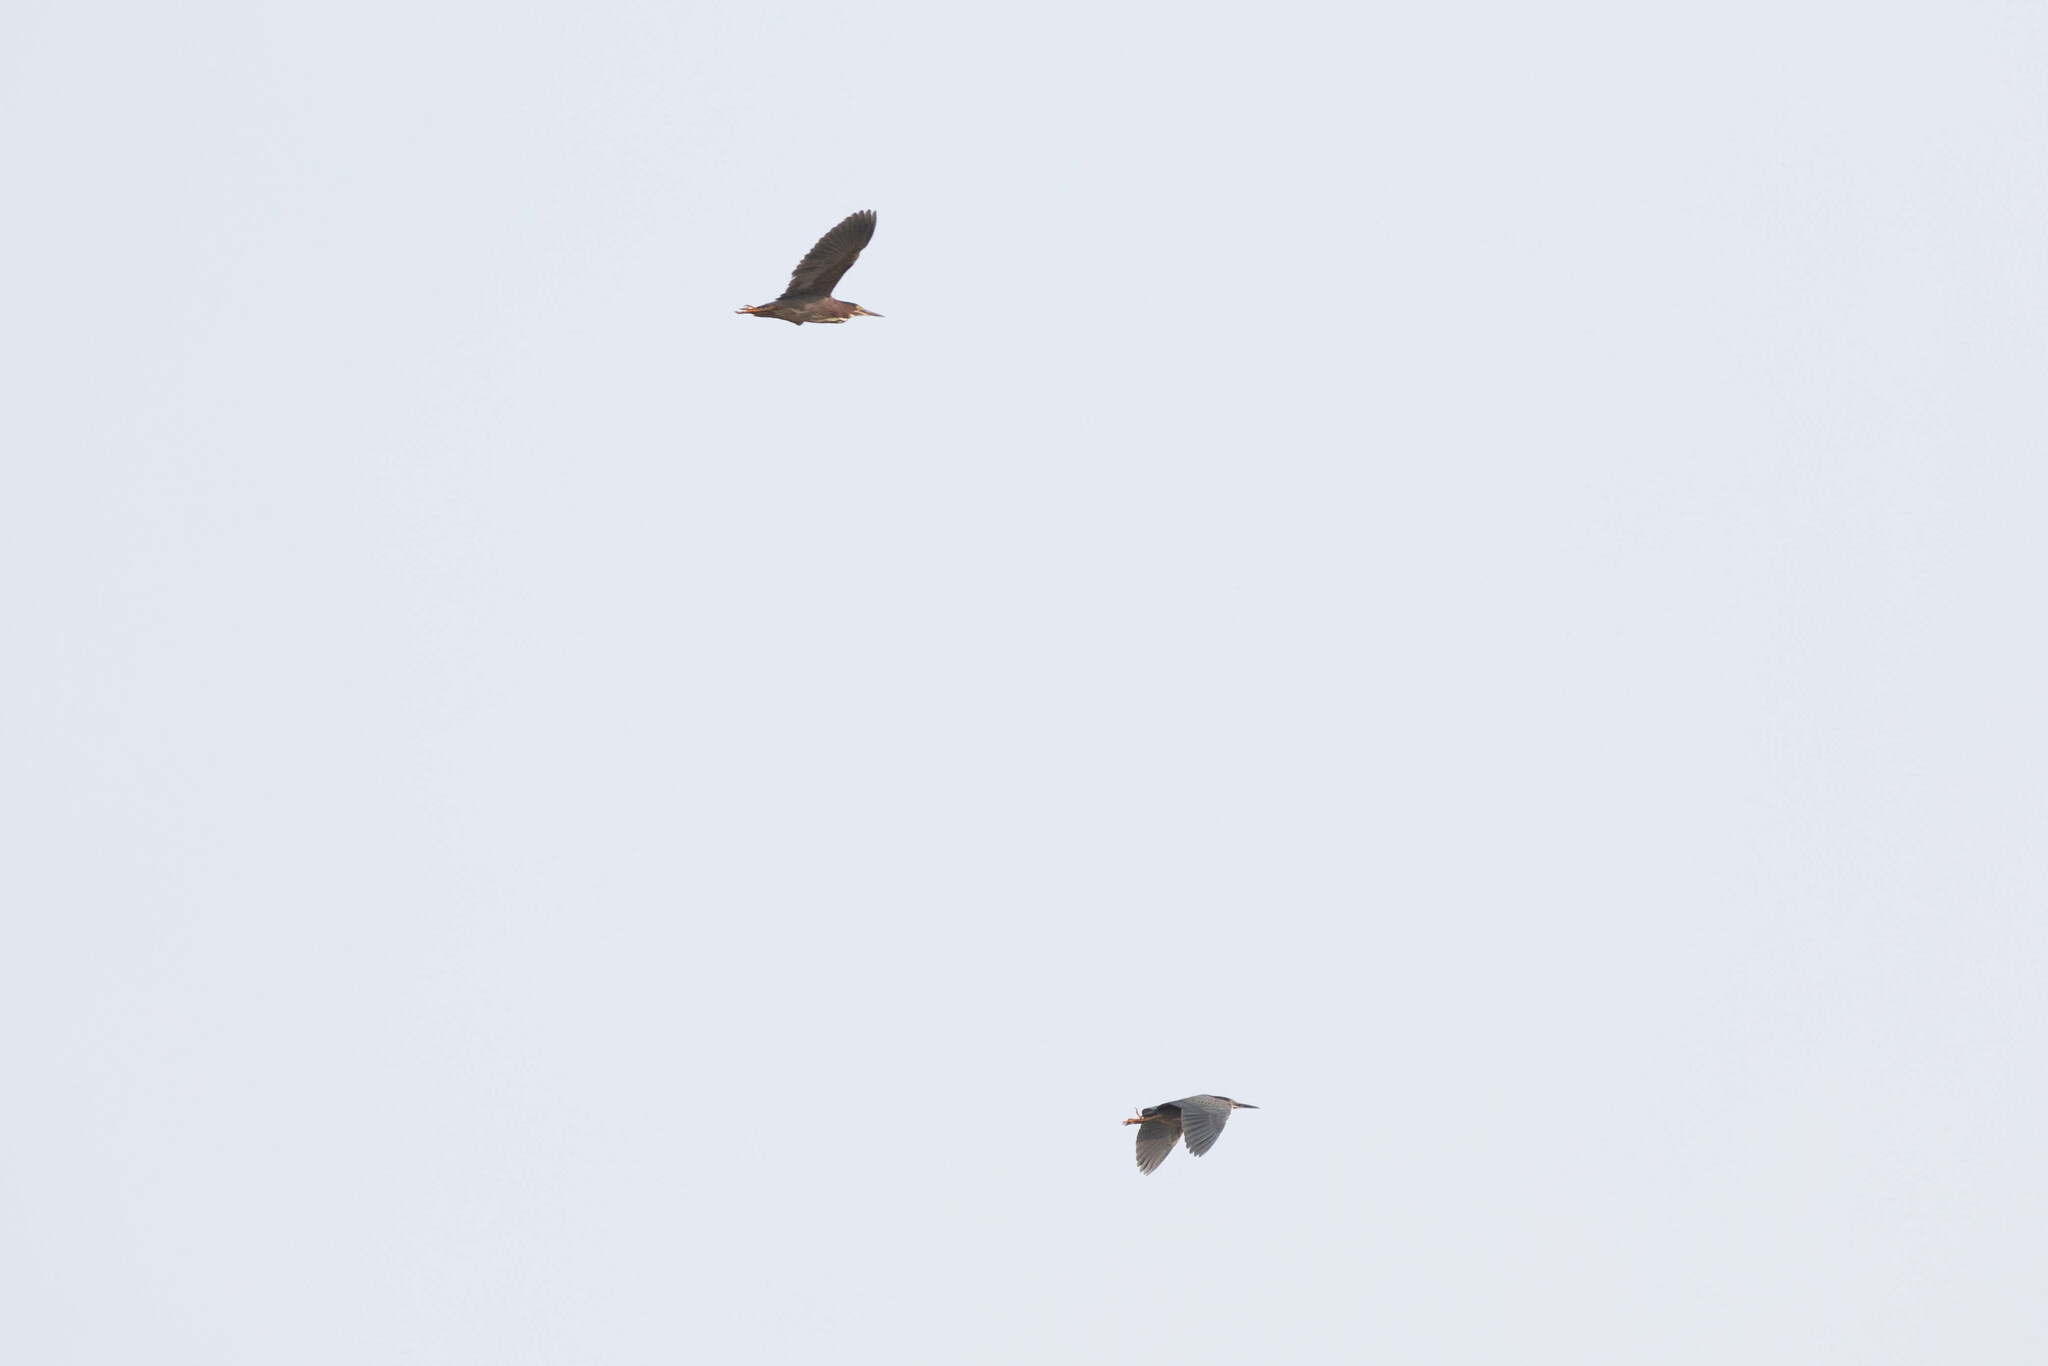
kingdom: Animalia
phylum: Chordata
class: Aves
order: Pelecaniformes
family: Ardeidae
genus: Butorides
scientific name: Butorides virescens
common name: Green heron
